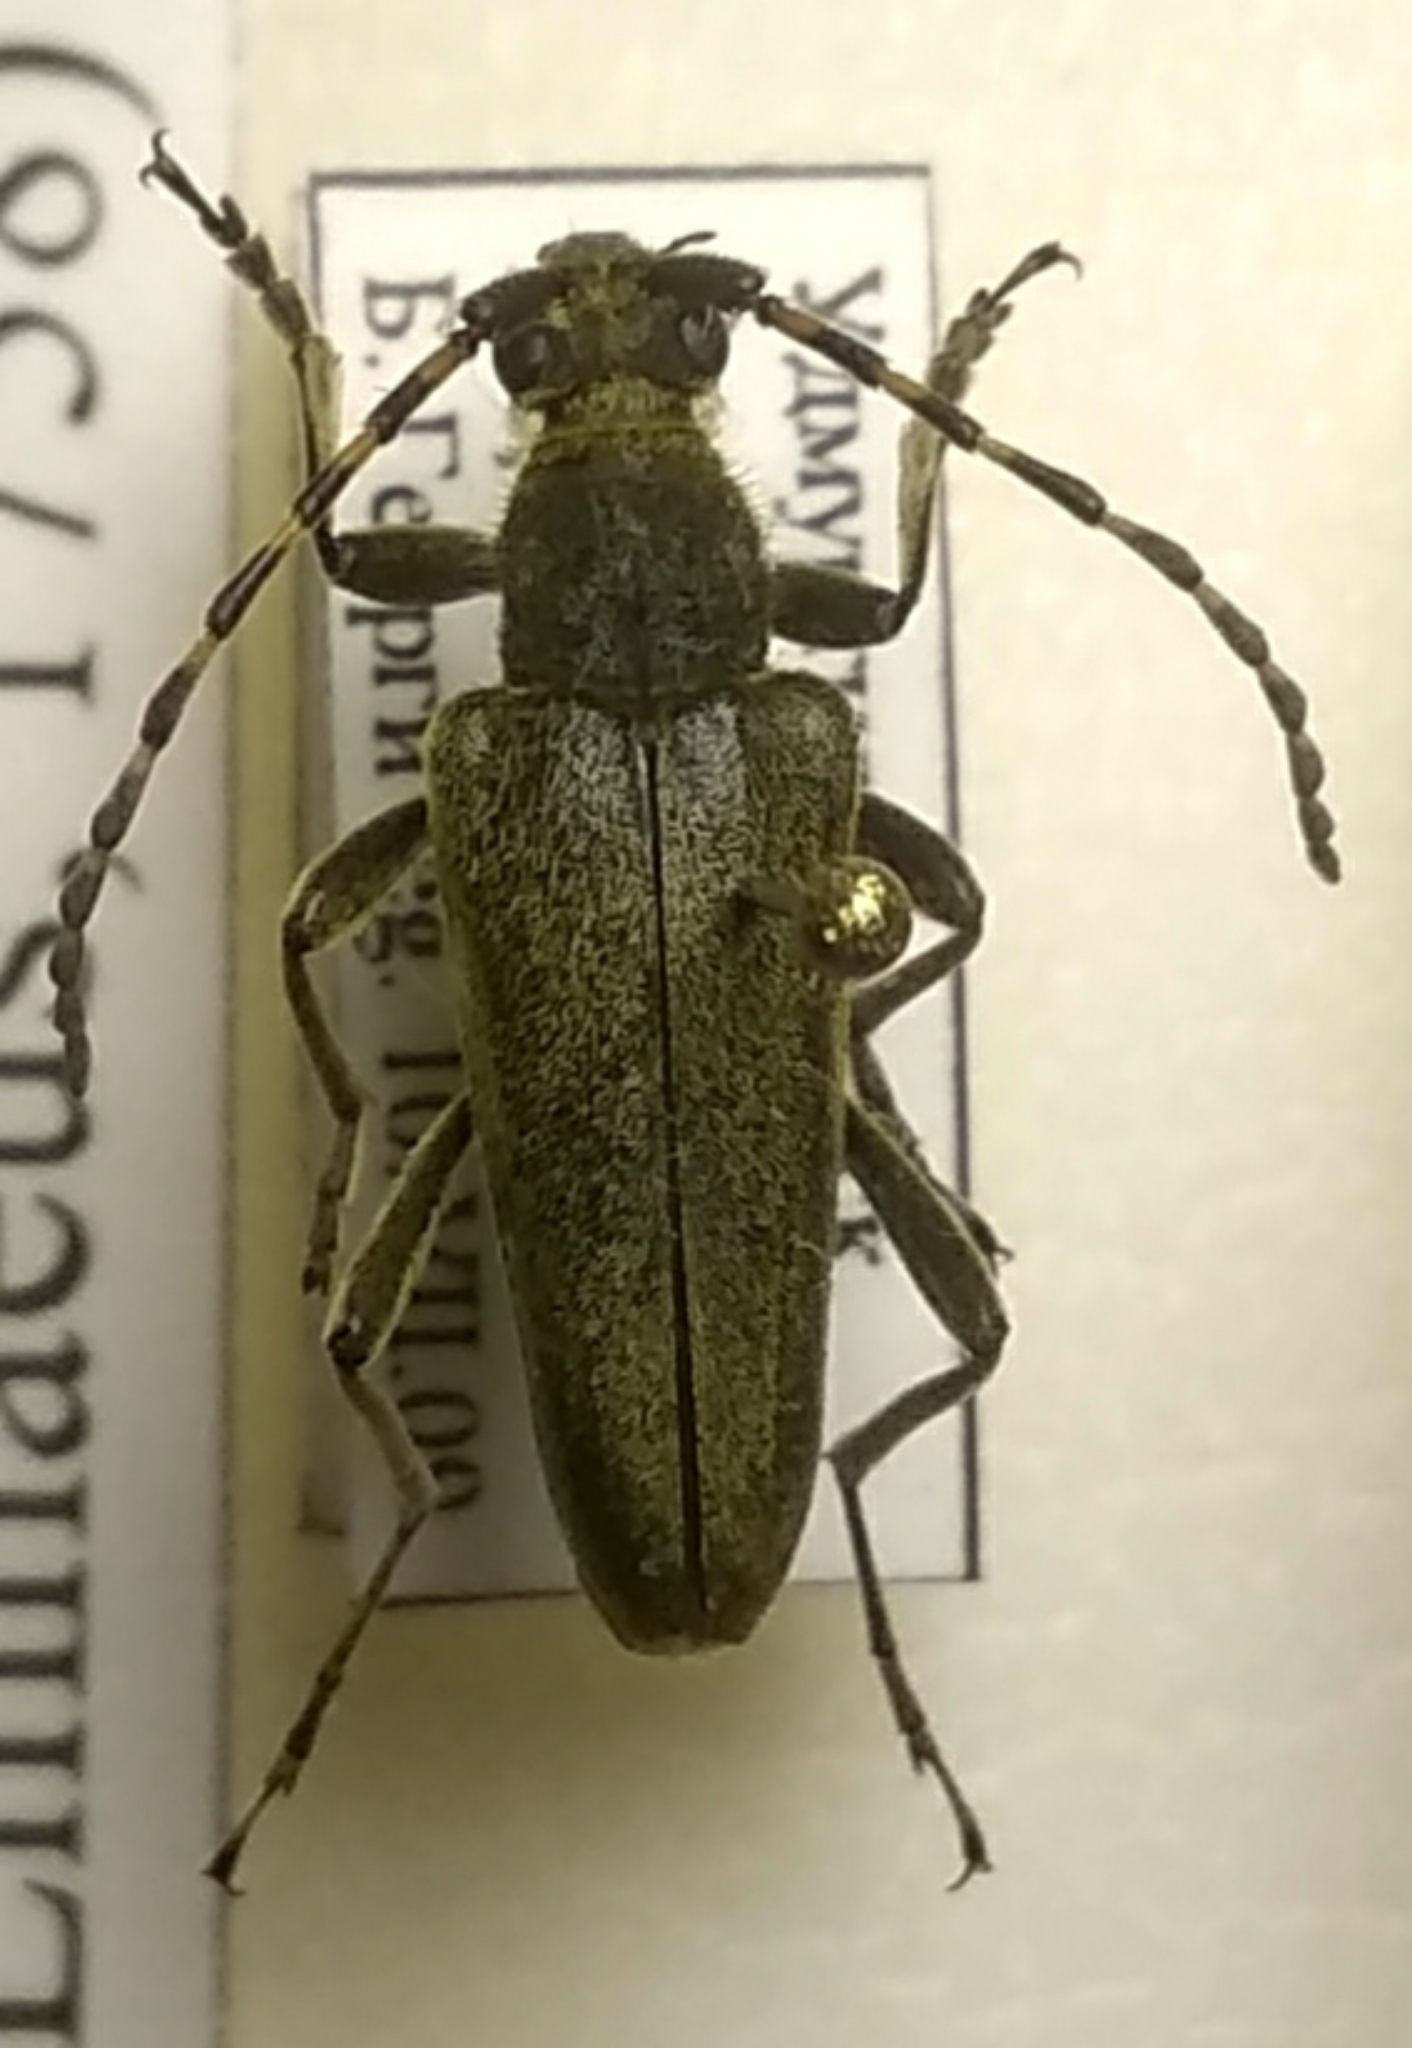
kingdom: Animalia
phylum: Arthropoda
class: Insecta
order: Coleoptera
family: Cerambycidae
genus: Lepturobosca
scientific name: Lepturobosca virens
